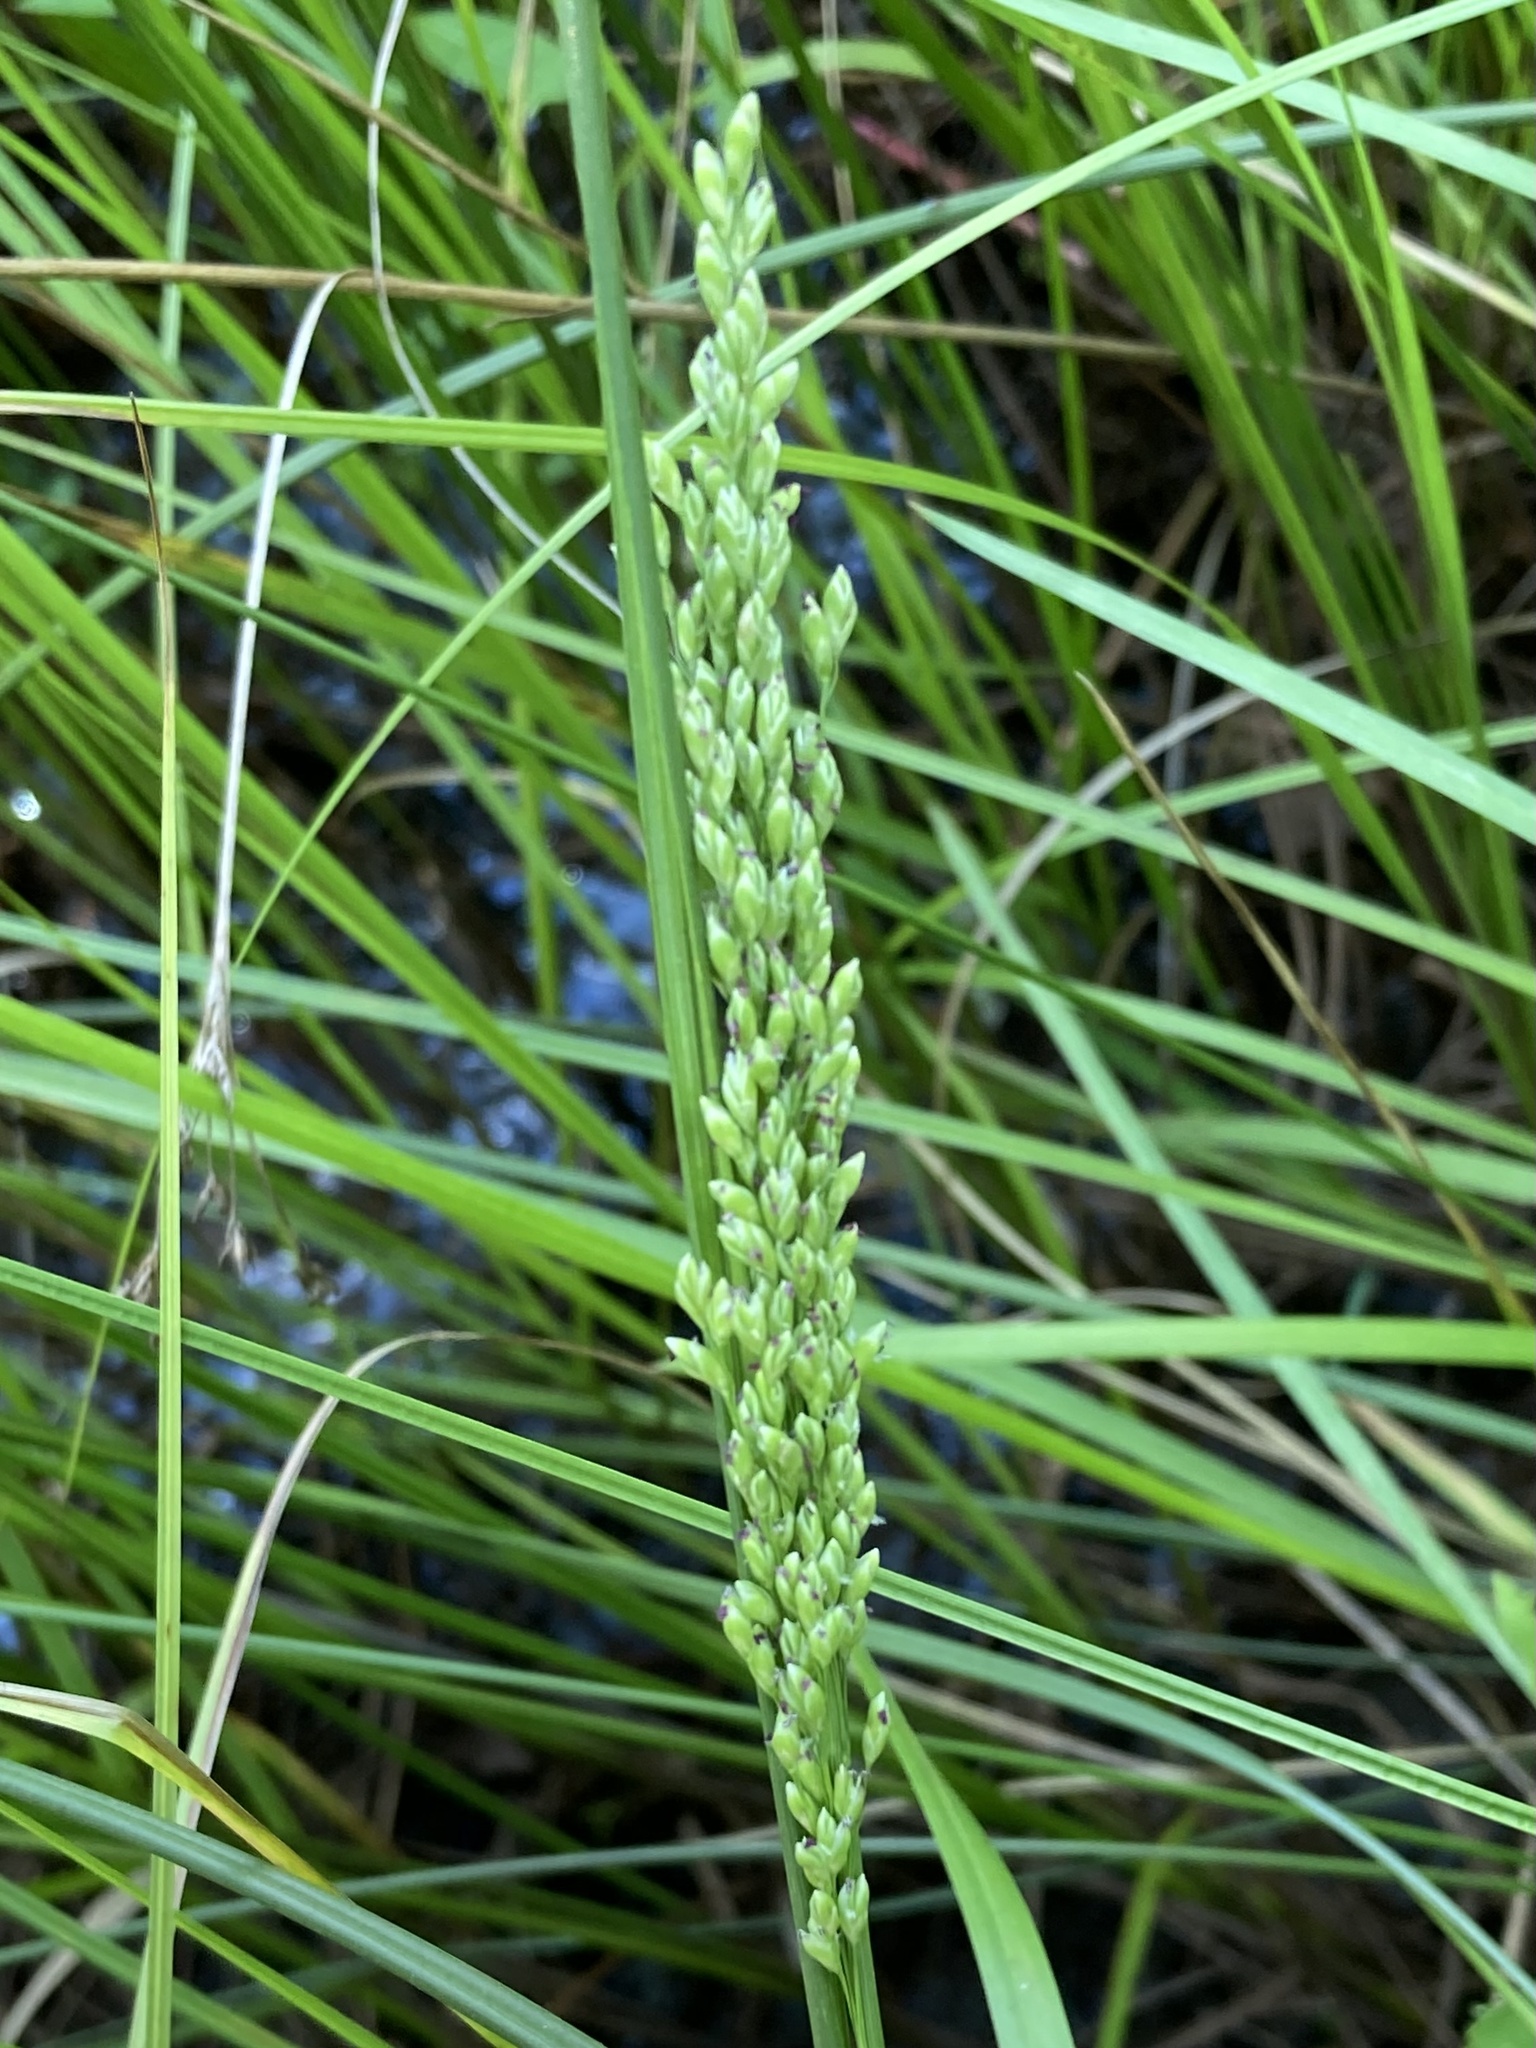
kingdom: Plantae
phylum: Tracheophyta
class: Liliopsida
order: Poales
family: Poaceae
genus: Glyceria
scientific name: Glyceria obtusa
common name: Atlantic mannagrass
